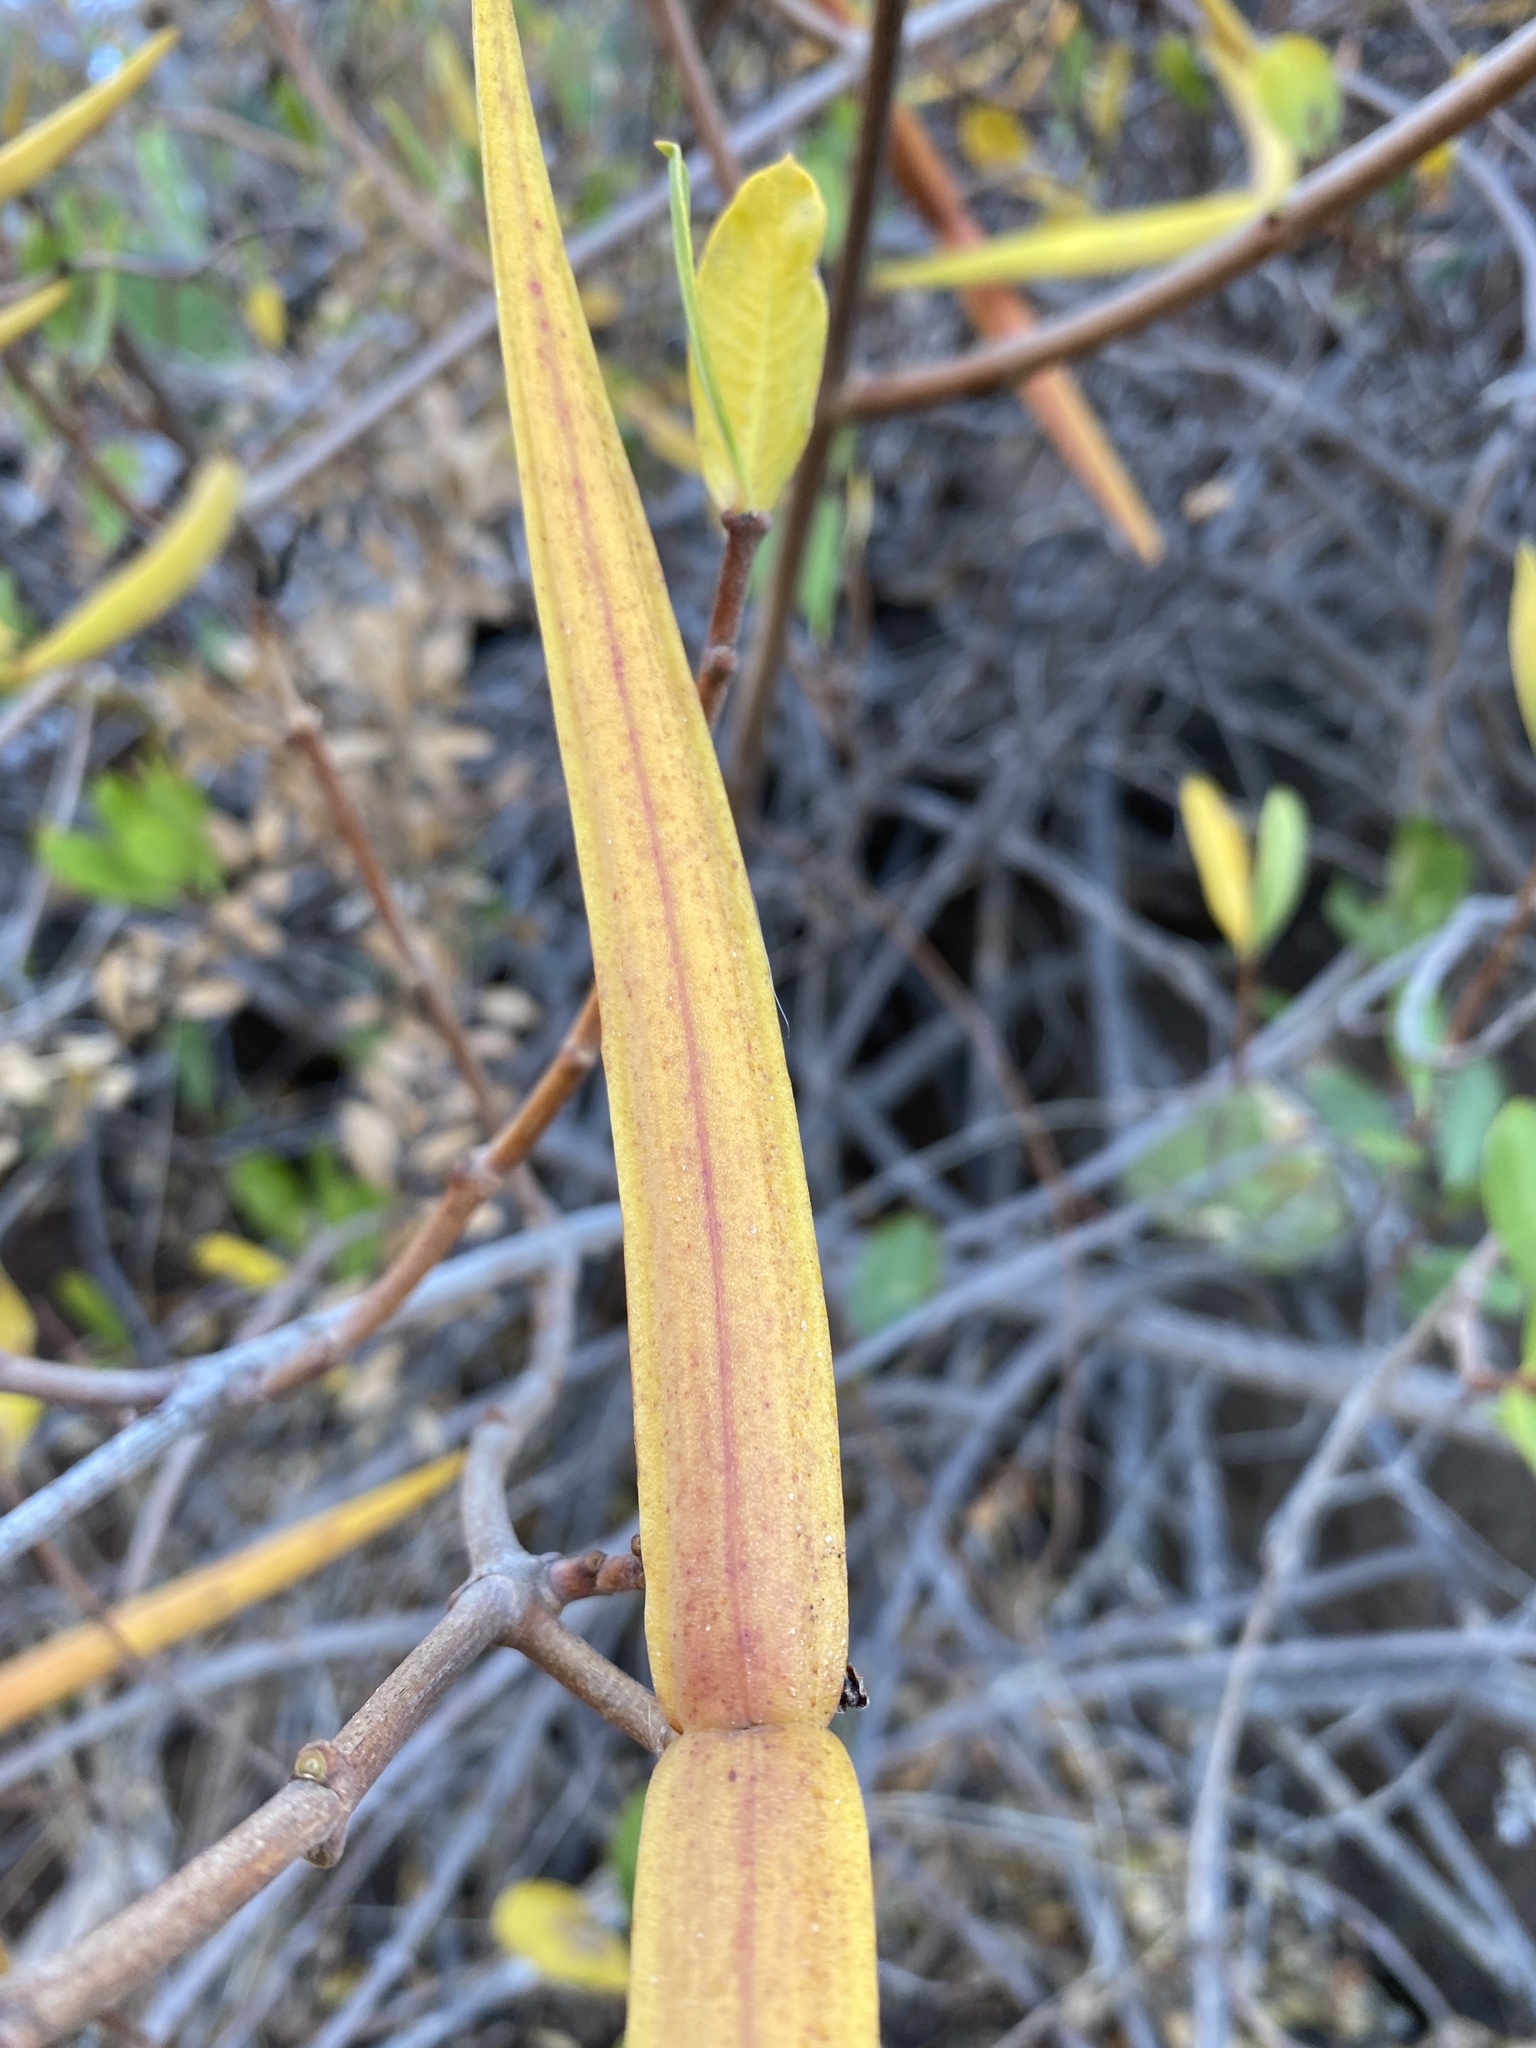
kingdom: Plantae
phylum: Tracheophyta
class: Magnoliopsida
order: Gentianales
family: Apocynaceae
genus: Periploca
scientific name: Periploca laevigata
